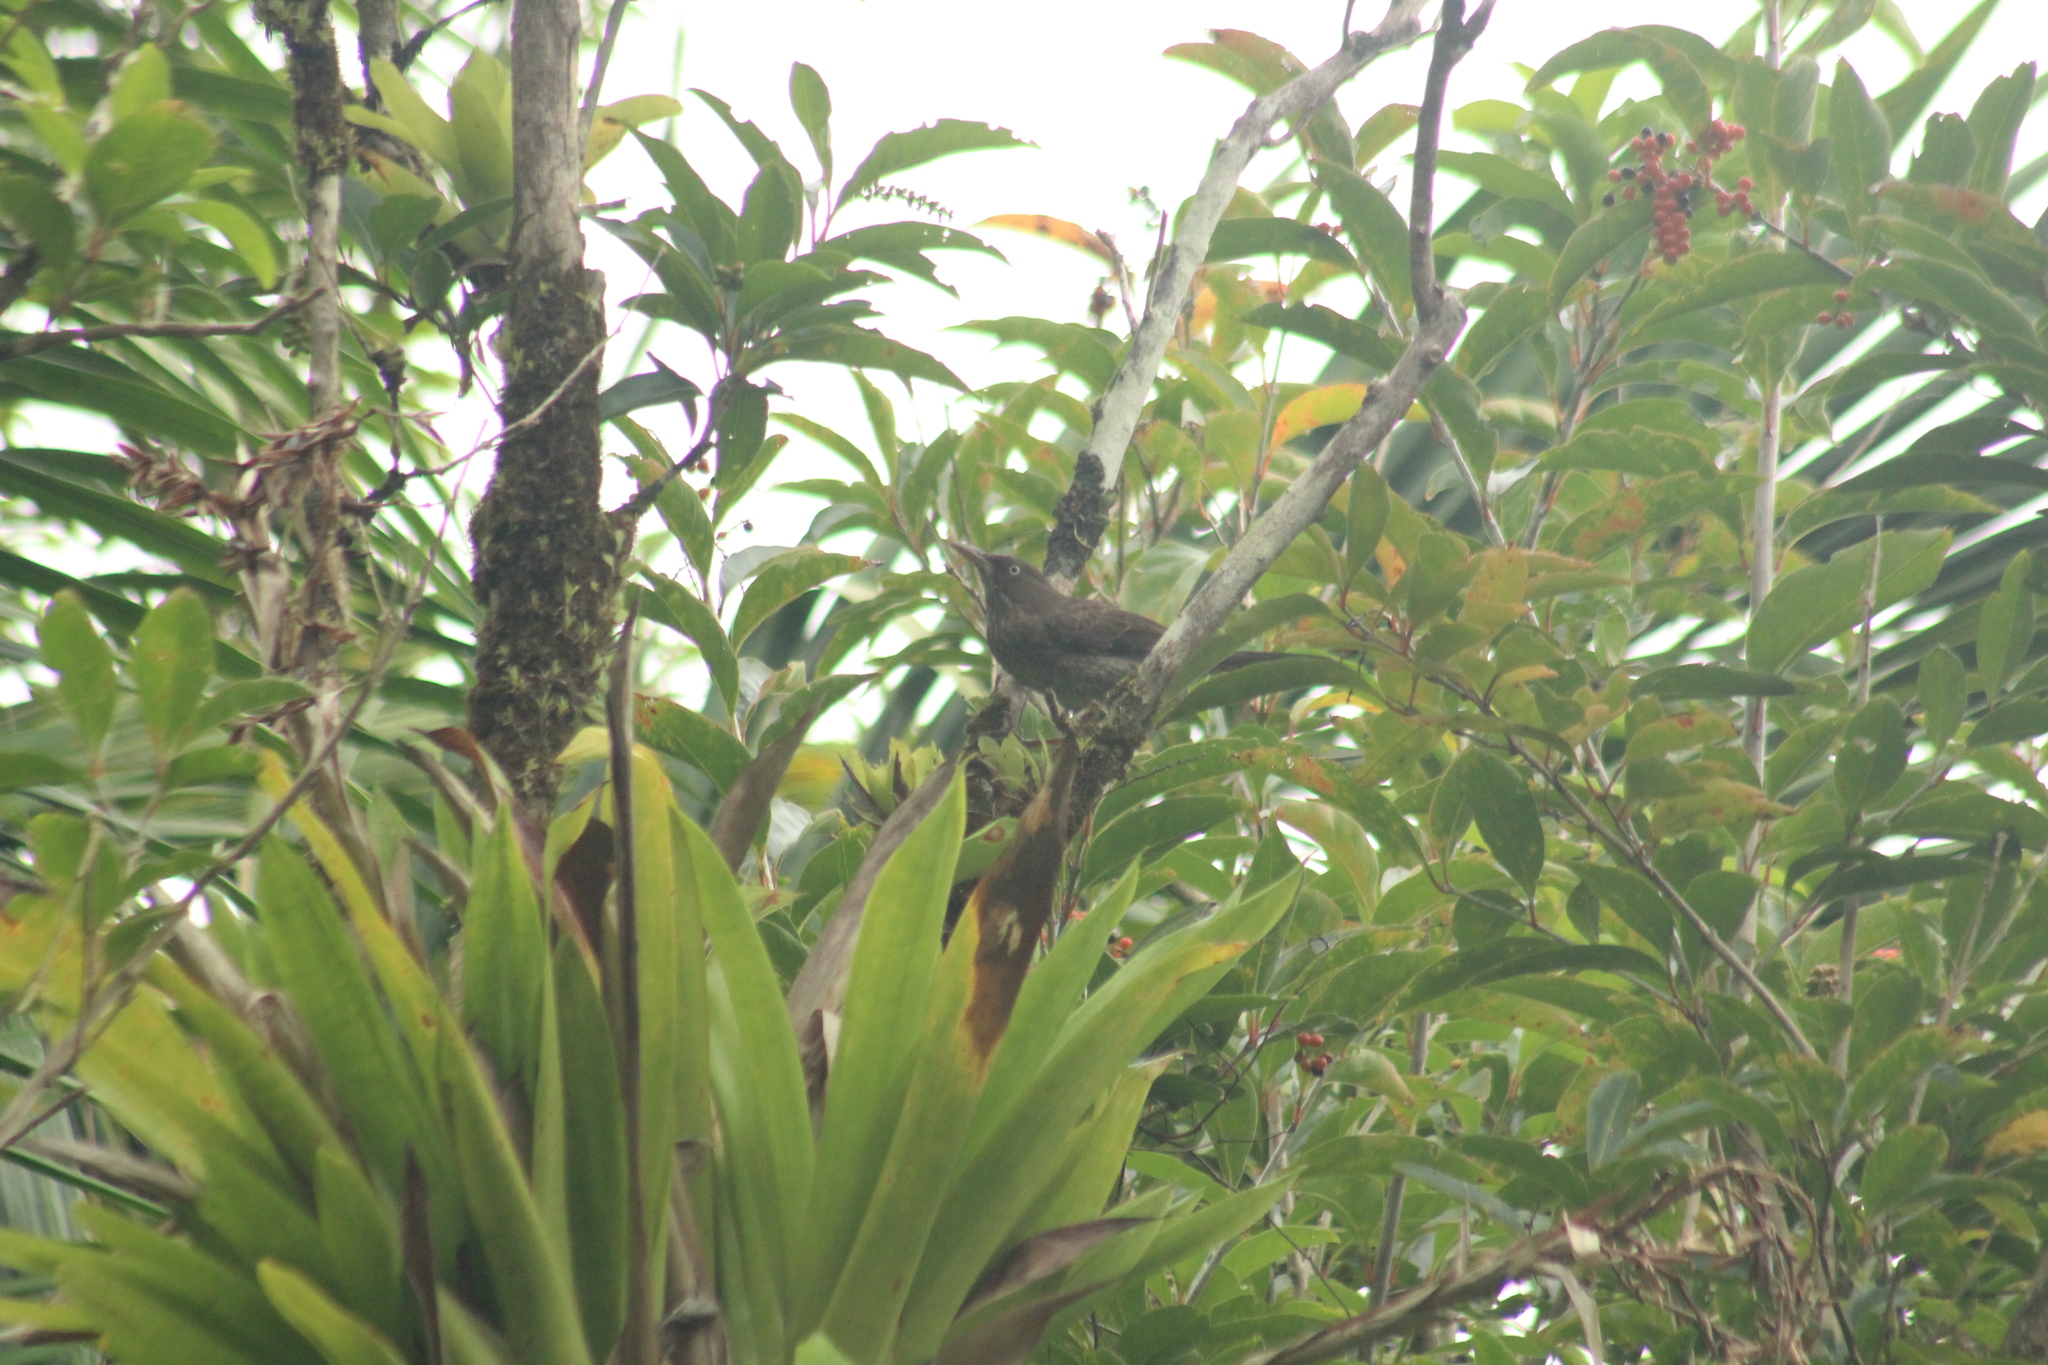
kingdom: Animalia
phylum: Chordata
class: Aves
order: Passeriformes
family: Mimidae
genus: Margarops
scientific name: Margarops fuscatus
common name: Pearly-eyed thrasher
